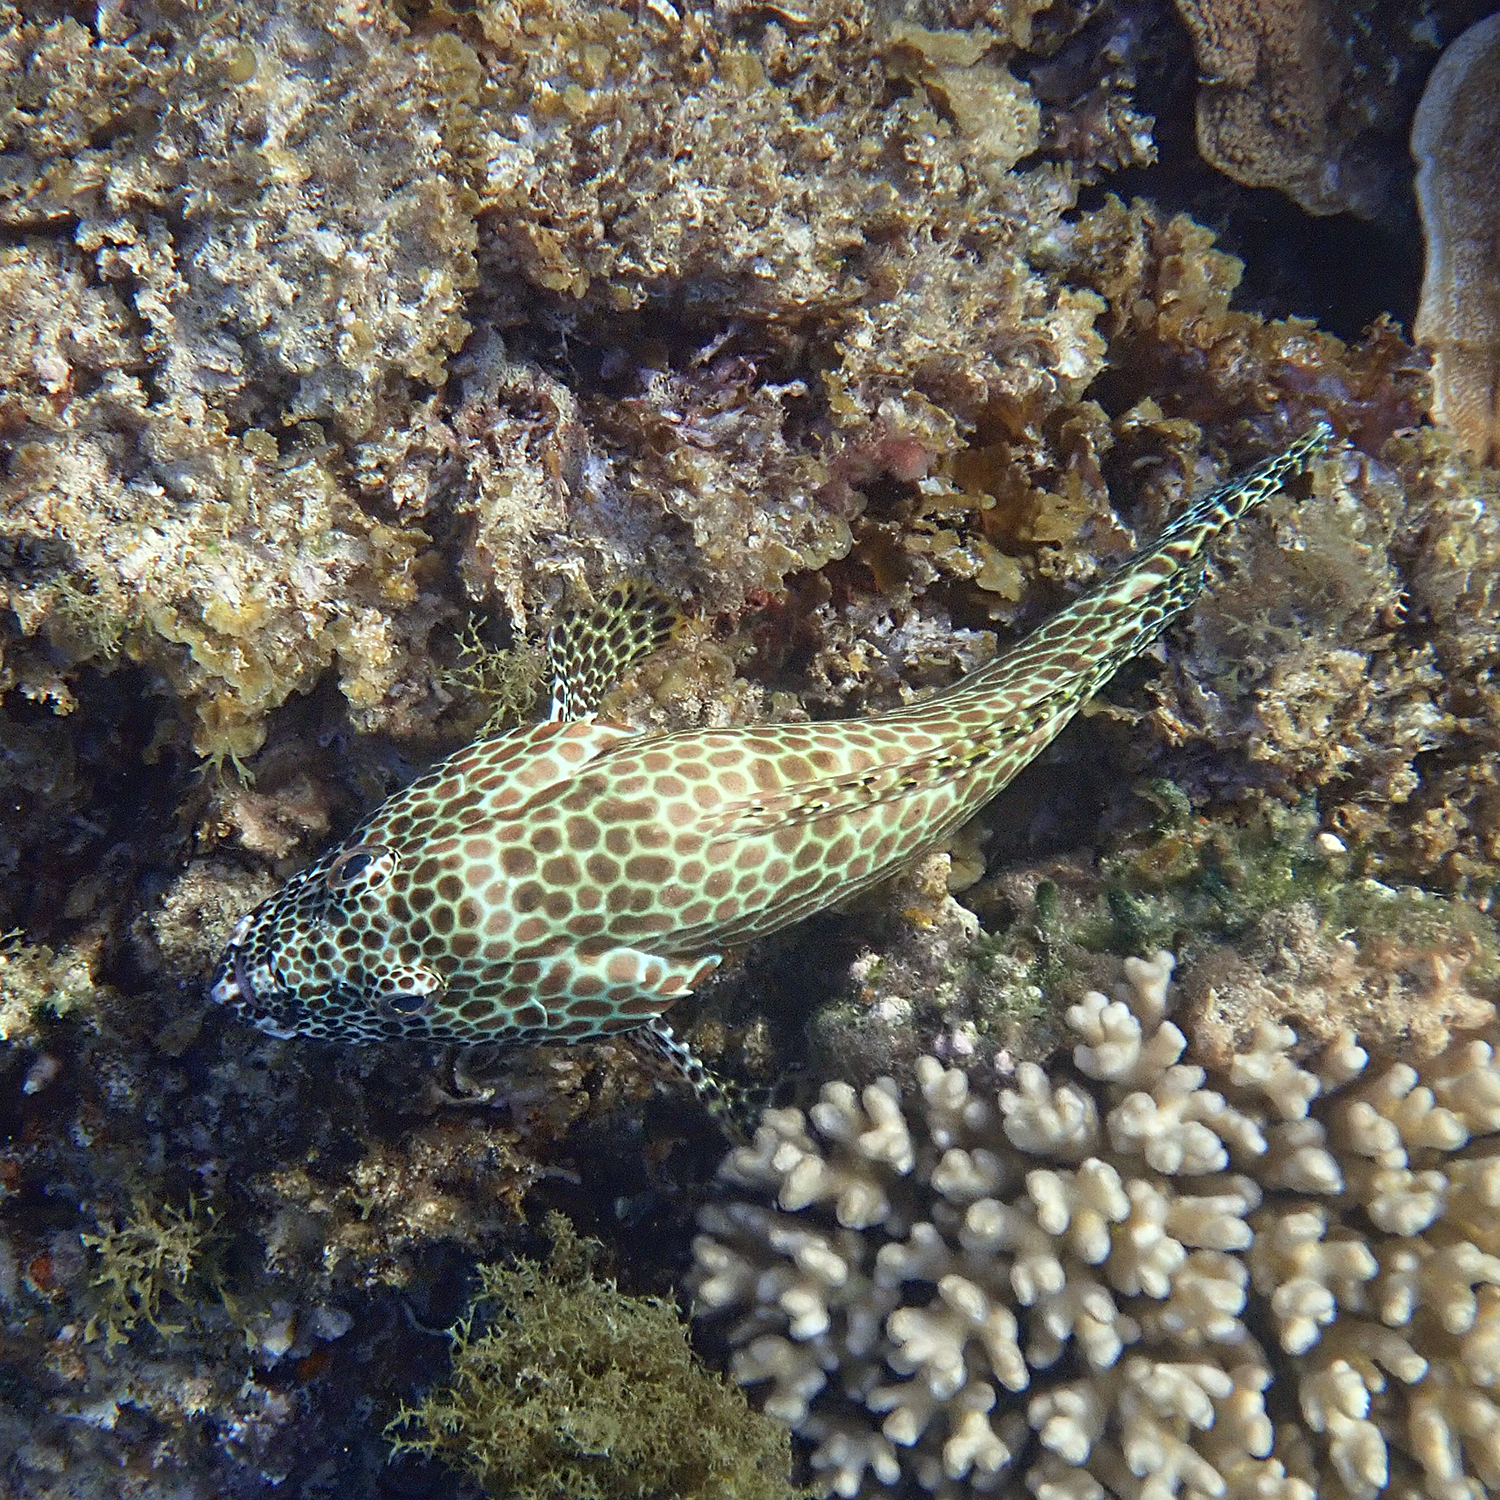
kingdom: Animalia
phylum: Chordata
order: Perciformes
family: Serranidae
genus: Epinephelus
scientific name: Epinephelus merra
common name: Honeycomb grouper
